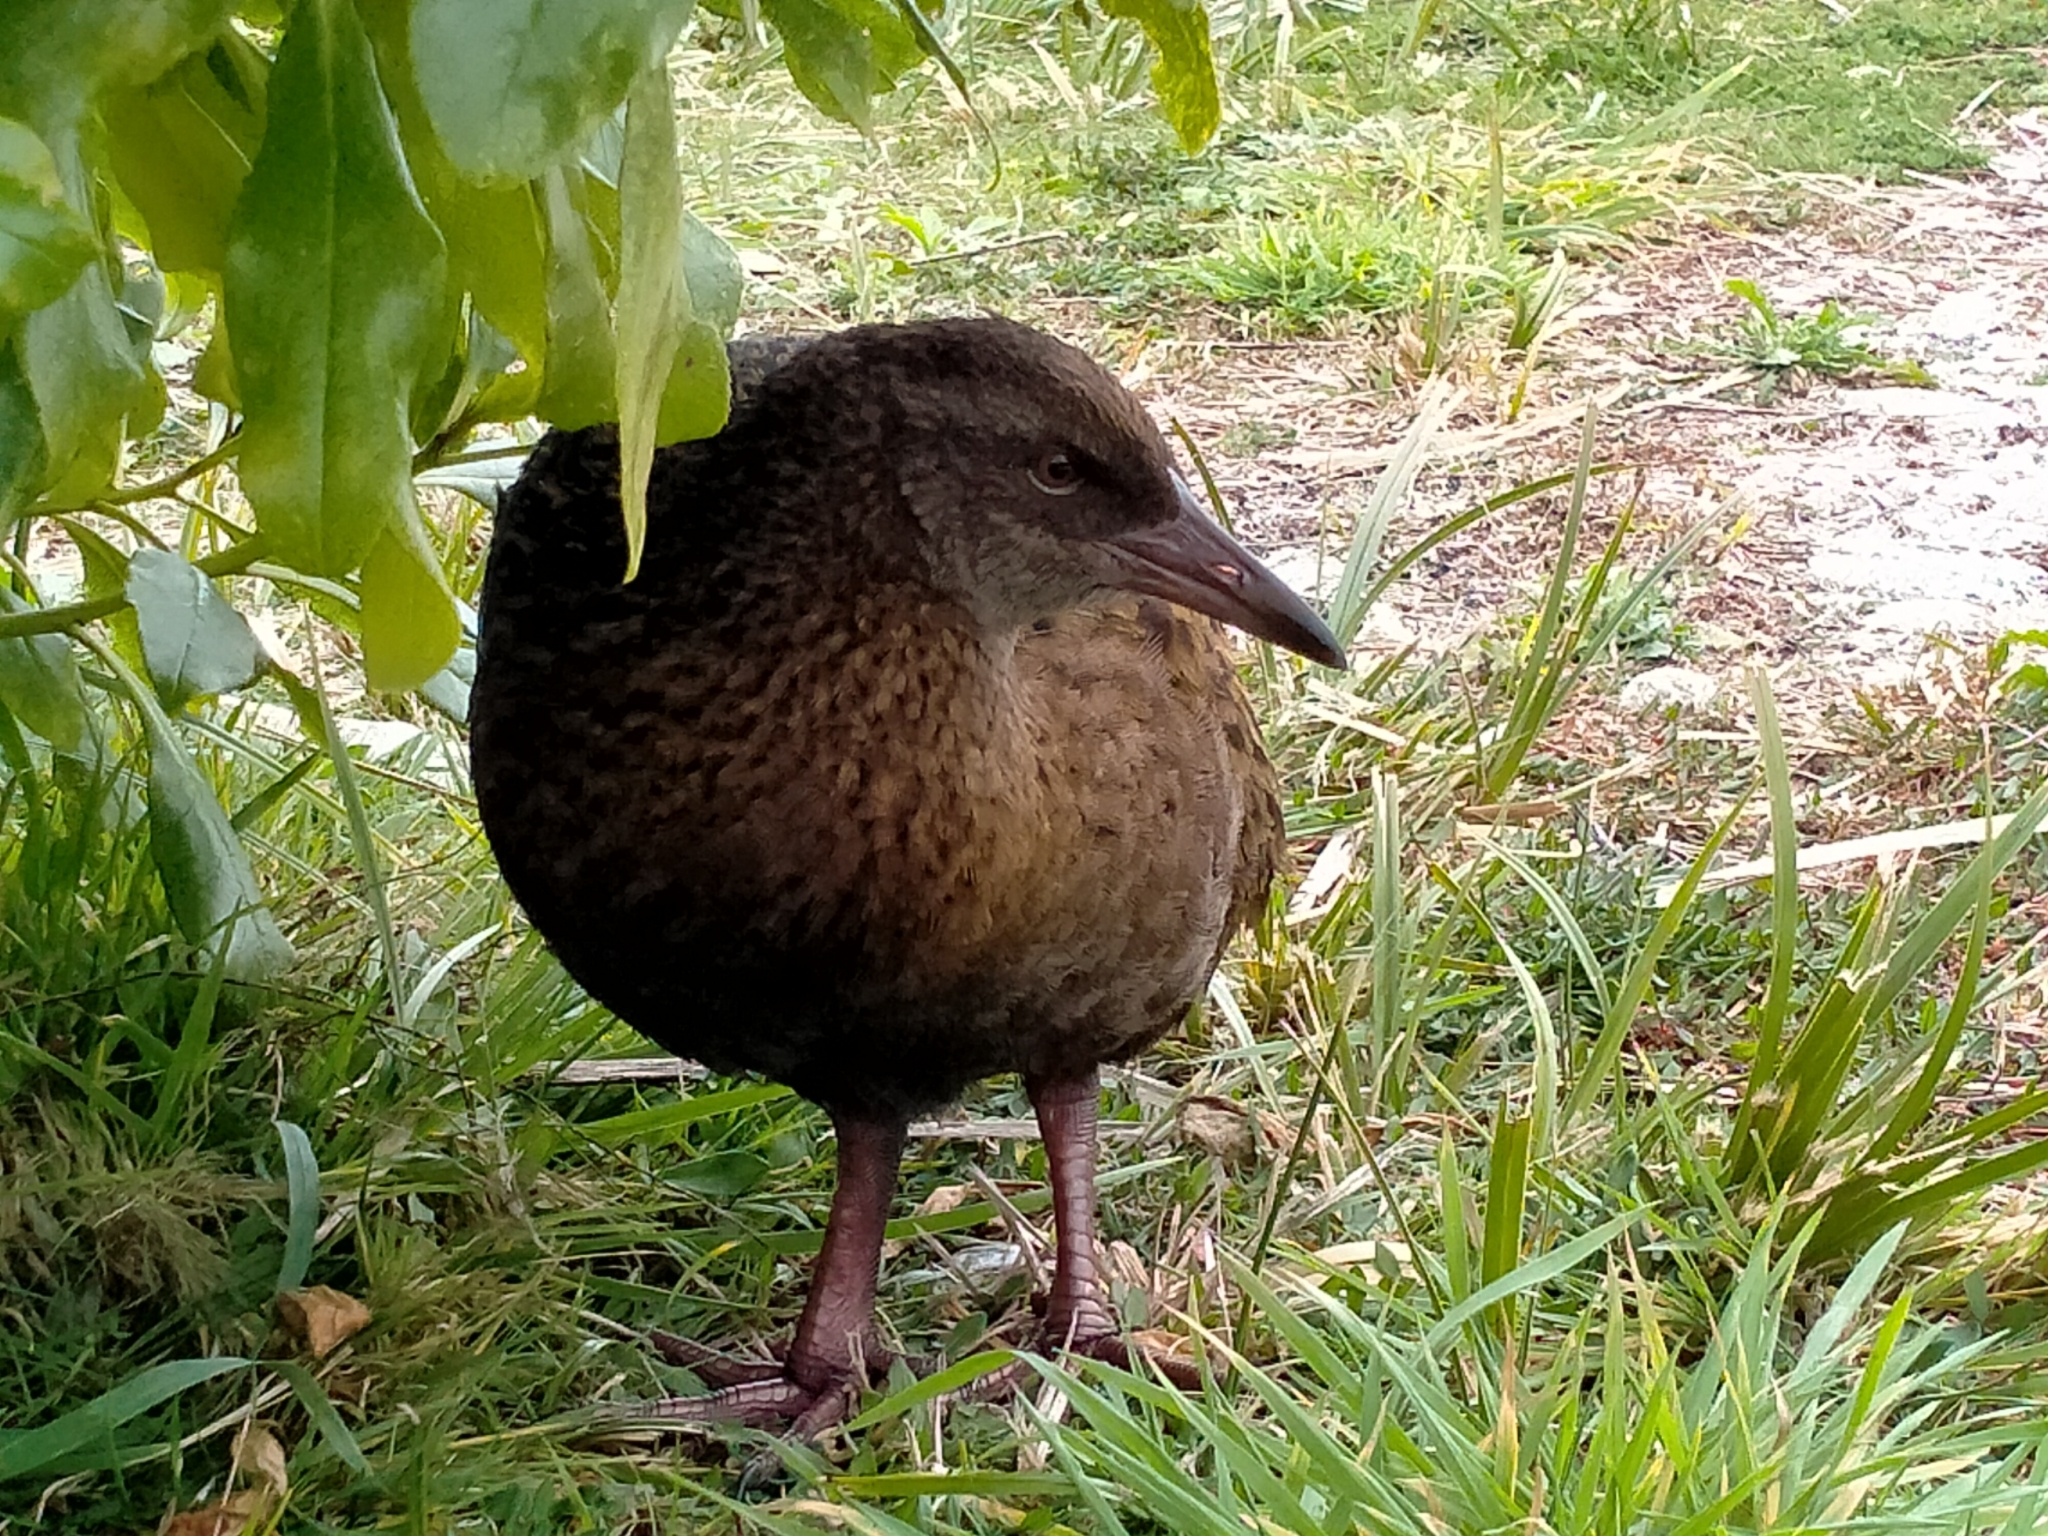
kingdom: Animalia
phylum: Chordata
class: Aves
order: Gruiformes
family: Rallidae
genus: Gallirallus
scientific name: Gallirallus australis
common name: Weka
